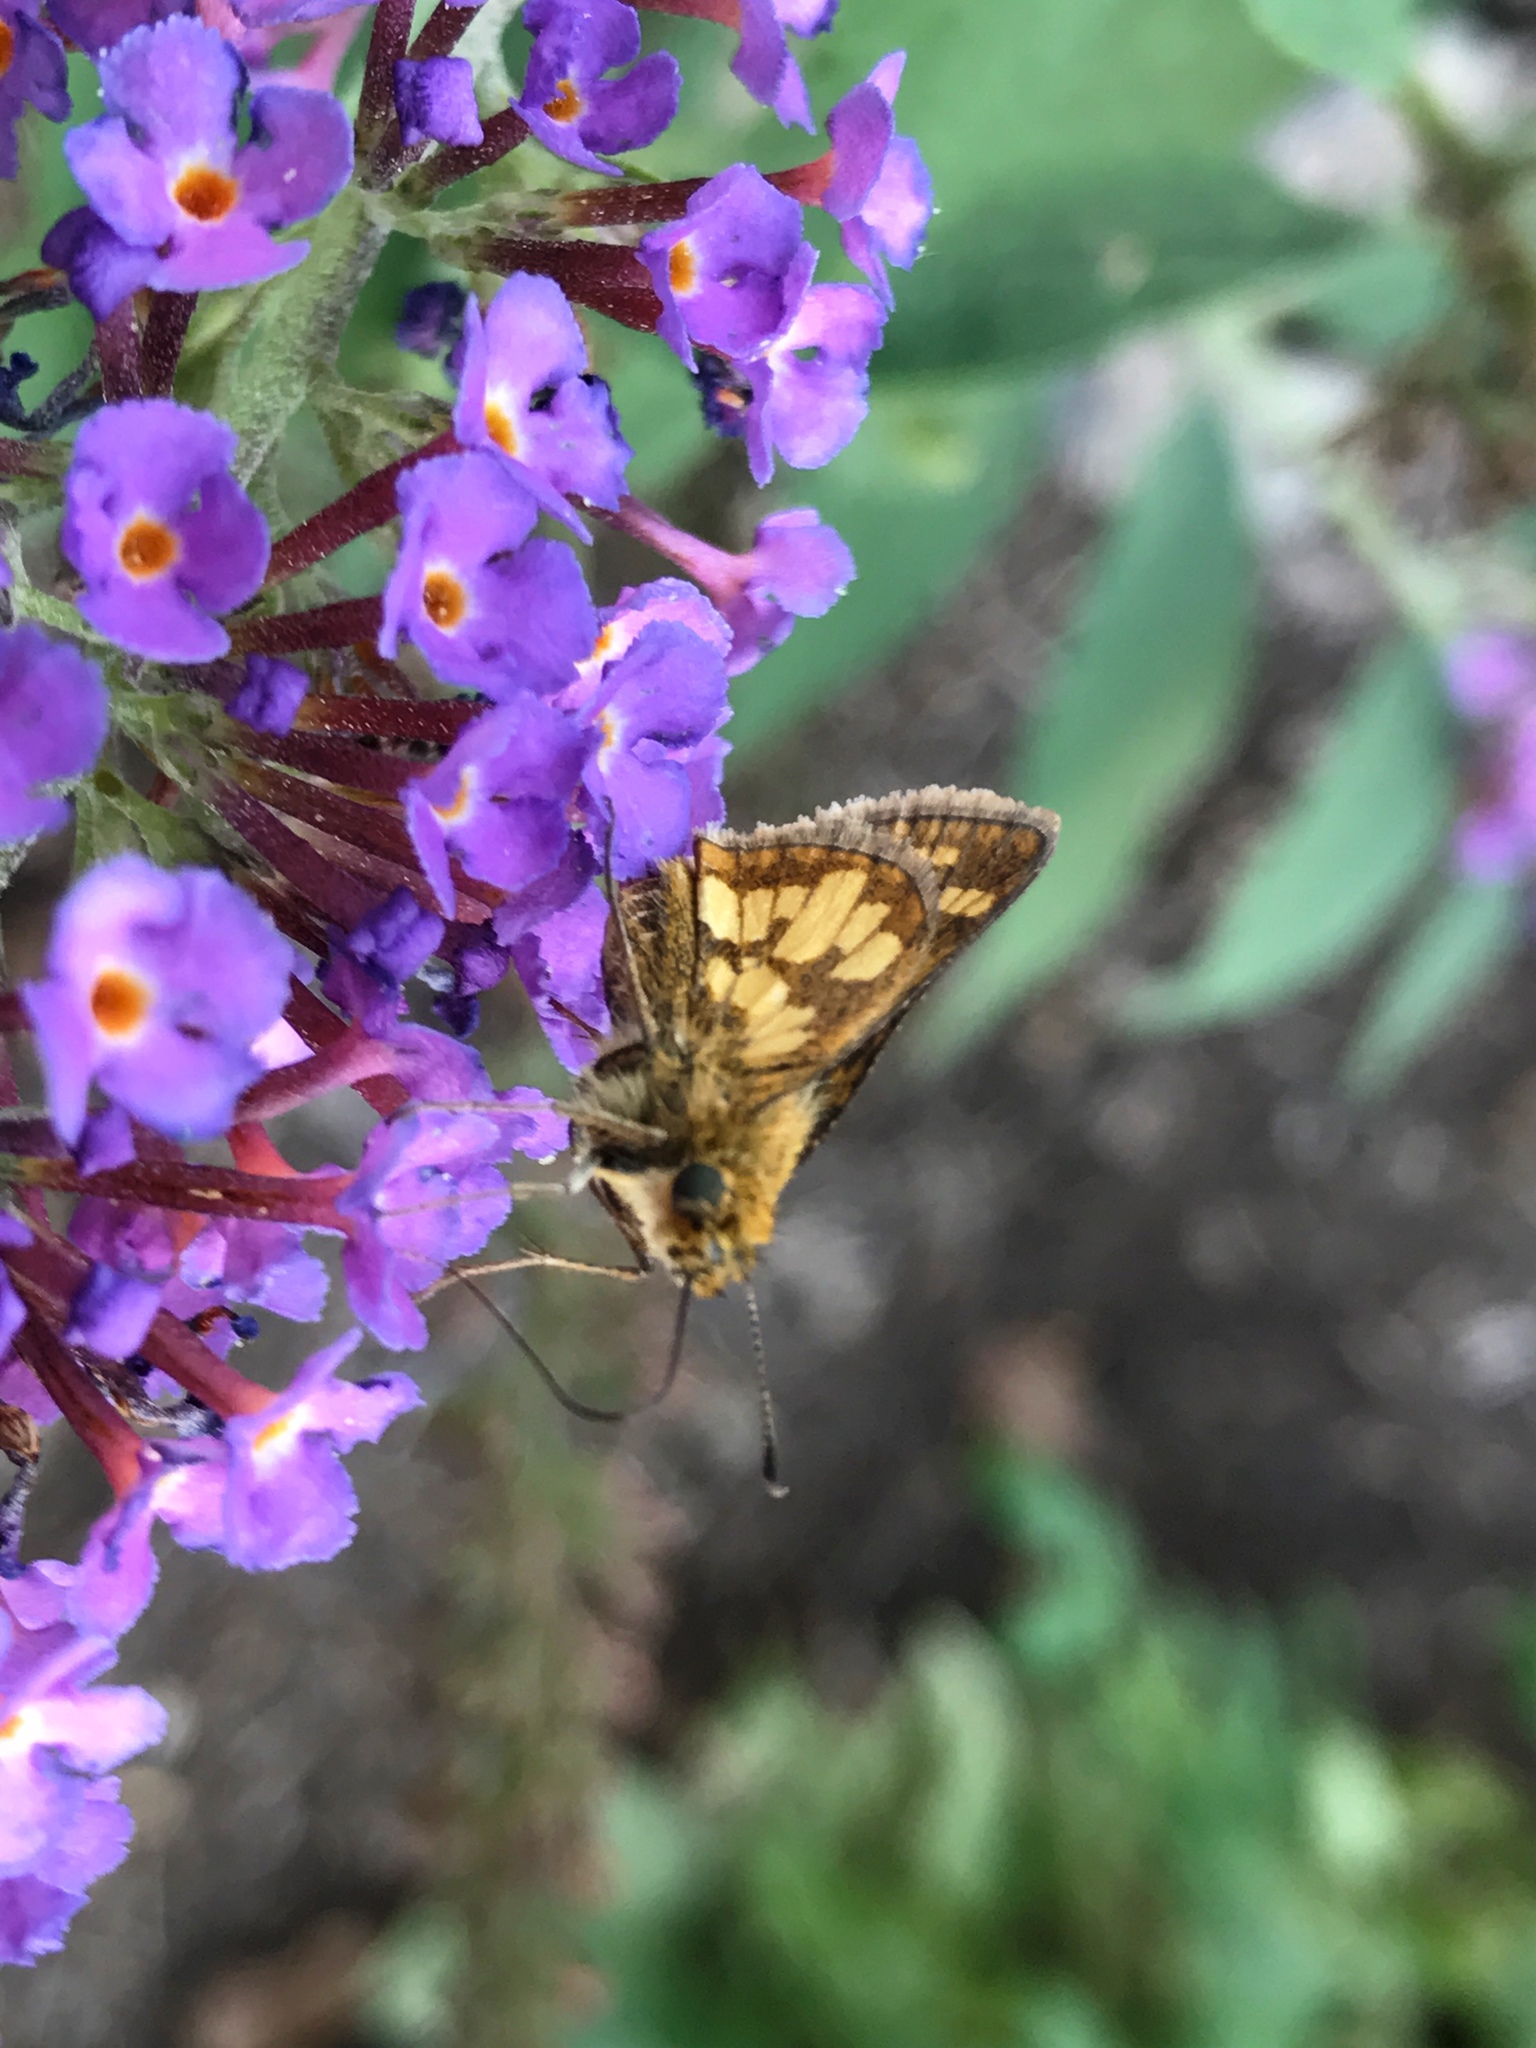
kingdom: Animalia
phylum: Arthropoda
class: Insecta
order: Lepidoptera
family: Hesperiidae
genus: Polites
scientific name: Polites coras
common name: Peck's skipper
